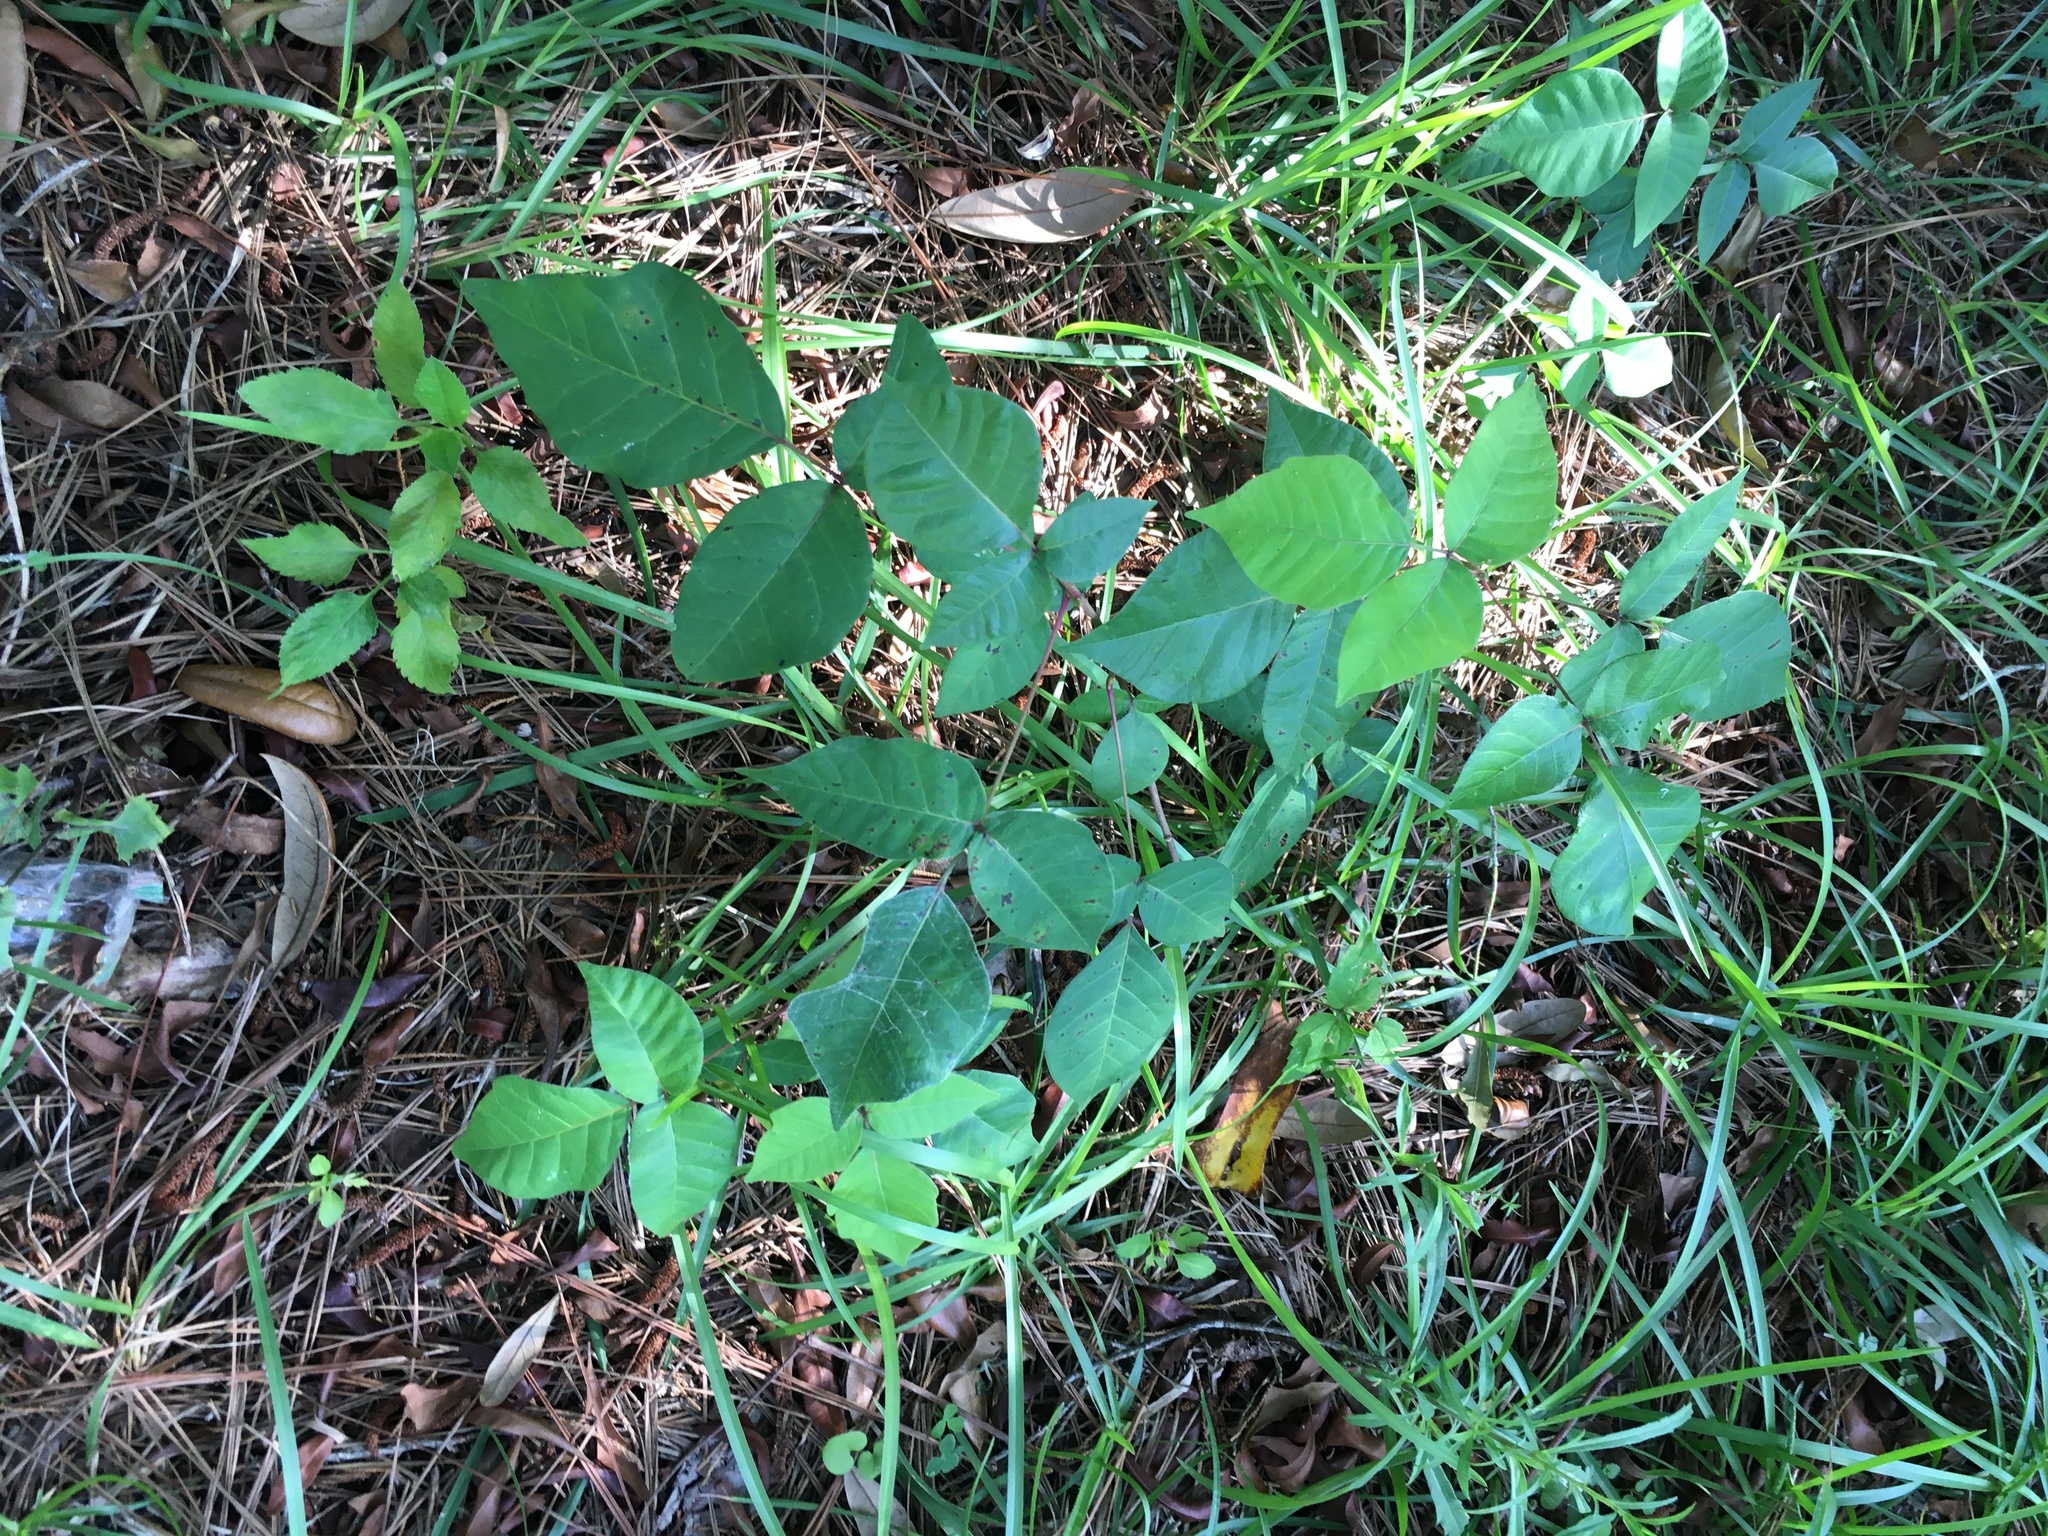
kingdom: Plantae
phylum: Tracheophyta
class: Magnoliopsida
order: Sapindales
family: Anacardiaceae
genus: Toxicodendron
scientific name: Toxicodendron radicans
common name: Poison ivy
